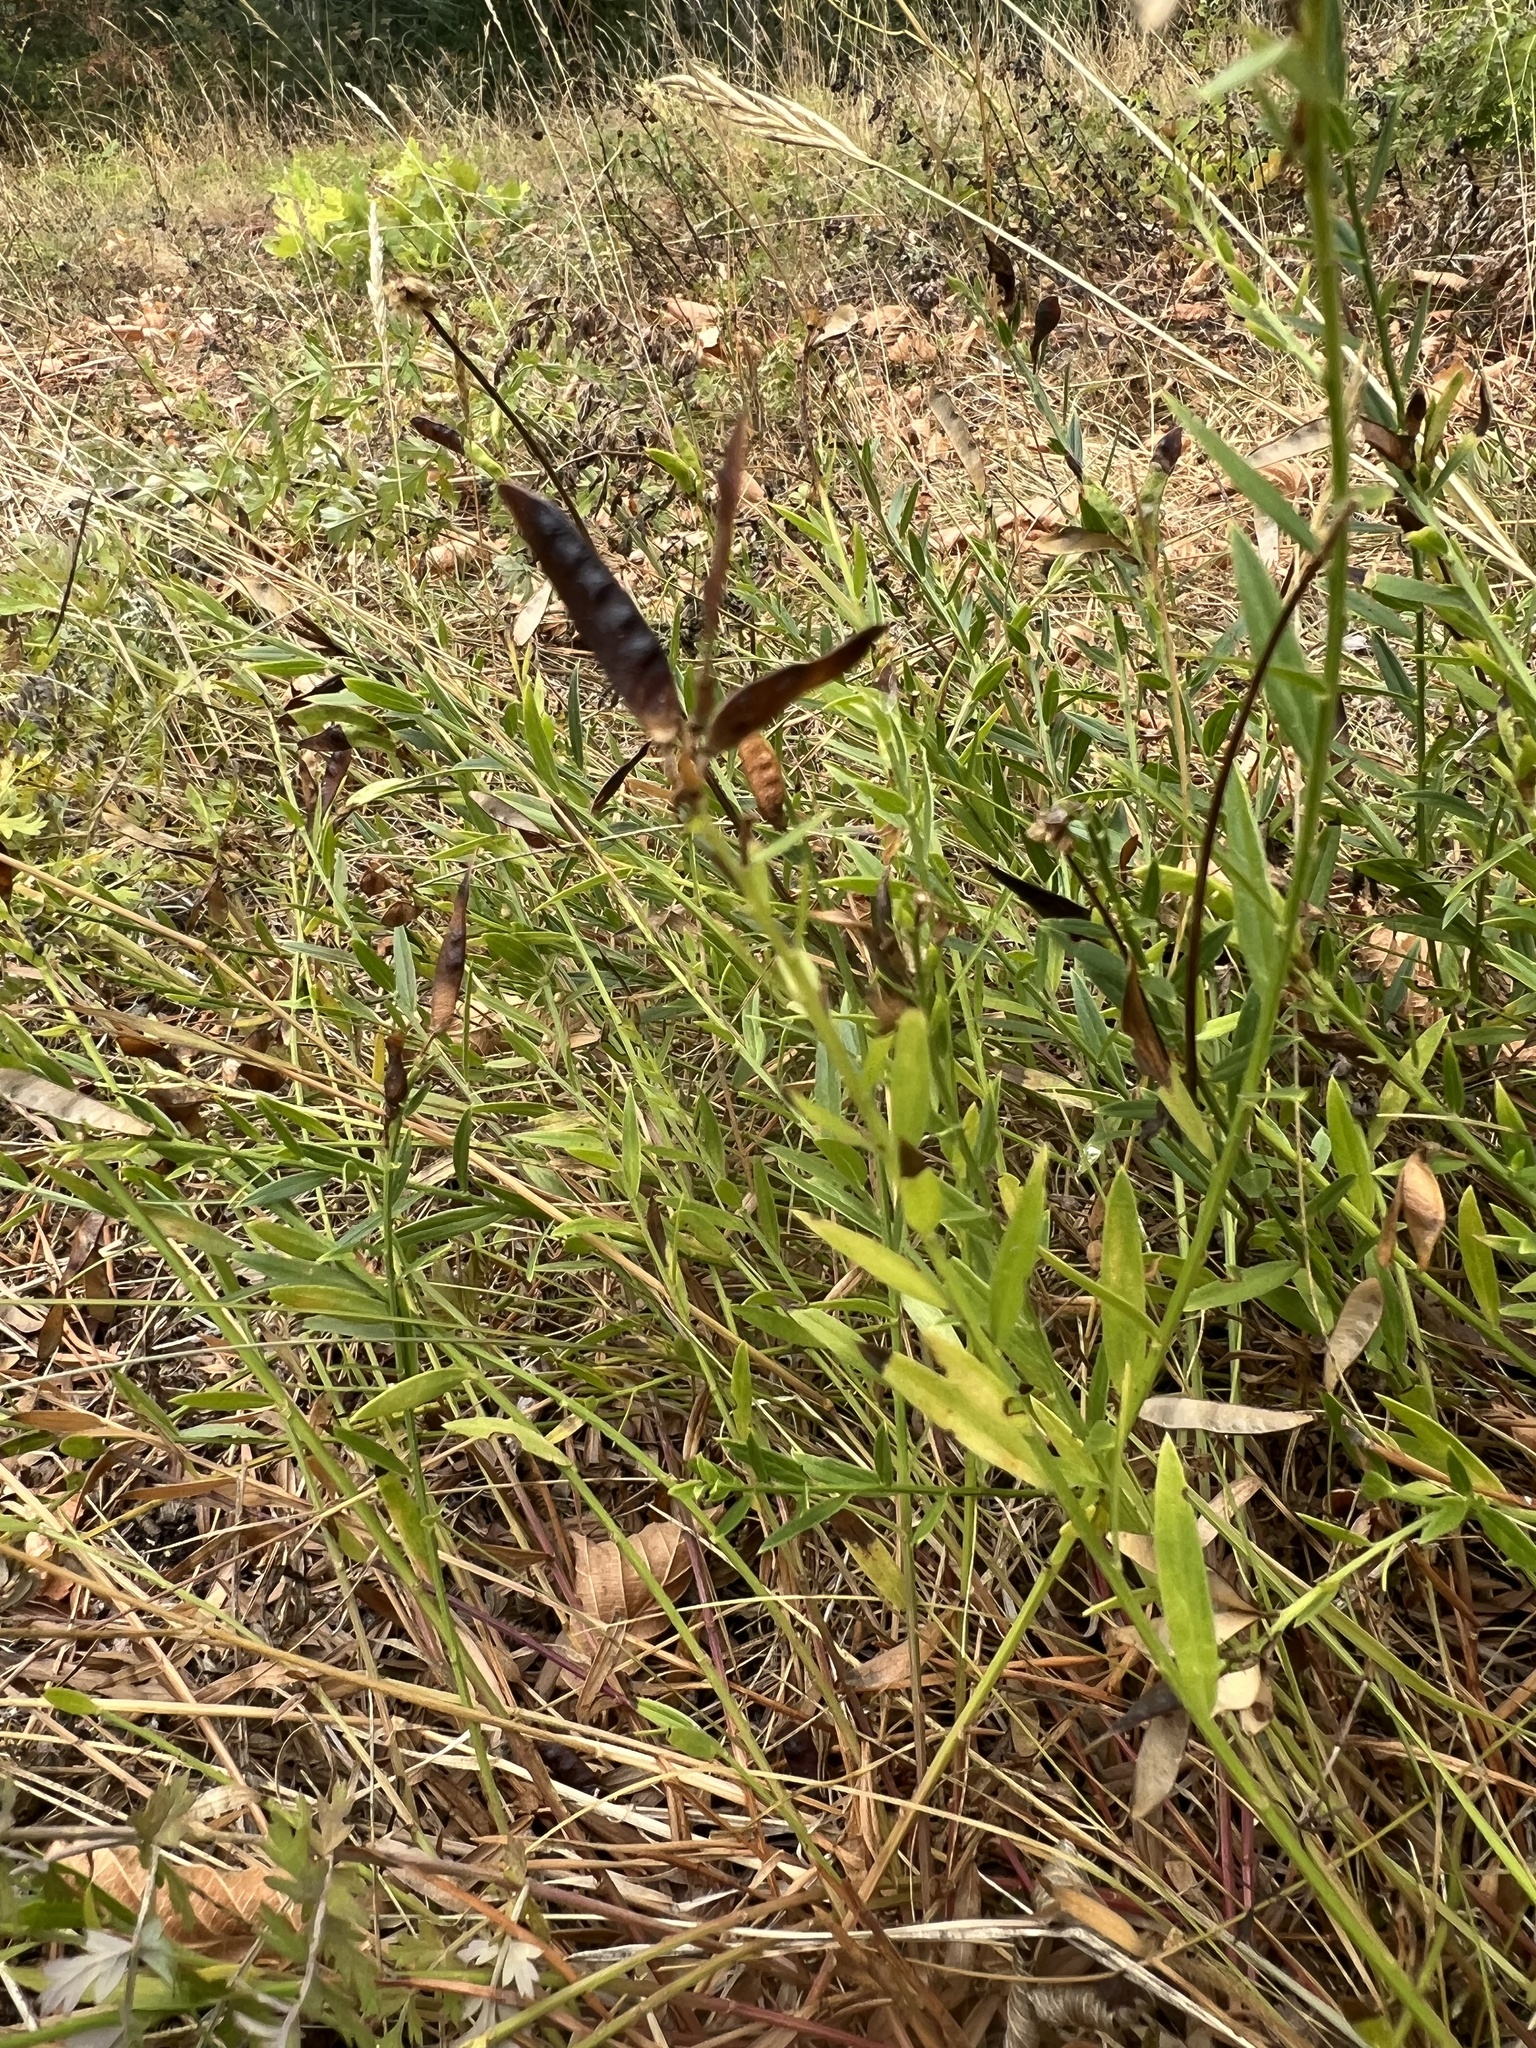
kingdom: Plantae
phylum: Tracheophyta
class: Magnoliopsida
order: Fabales
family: Fabaceae
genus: Genista
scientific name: Genista tinctoria
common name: Dyer's greenweed
